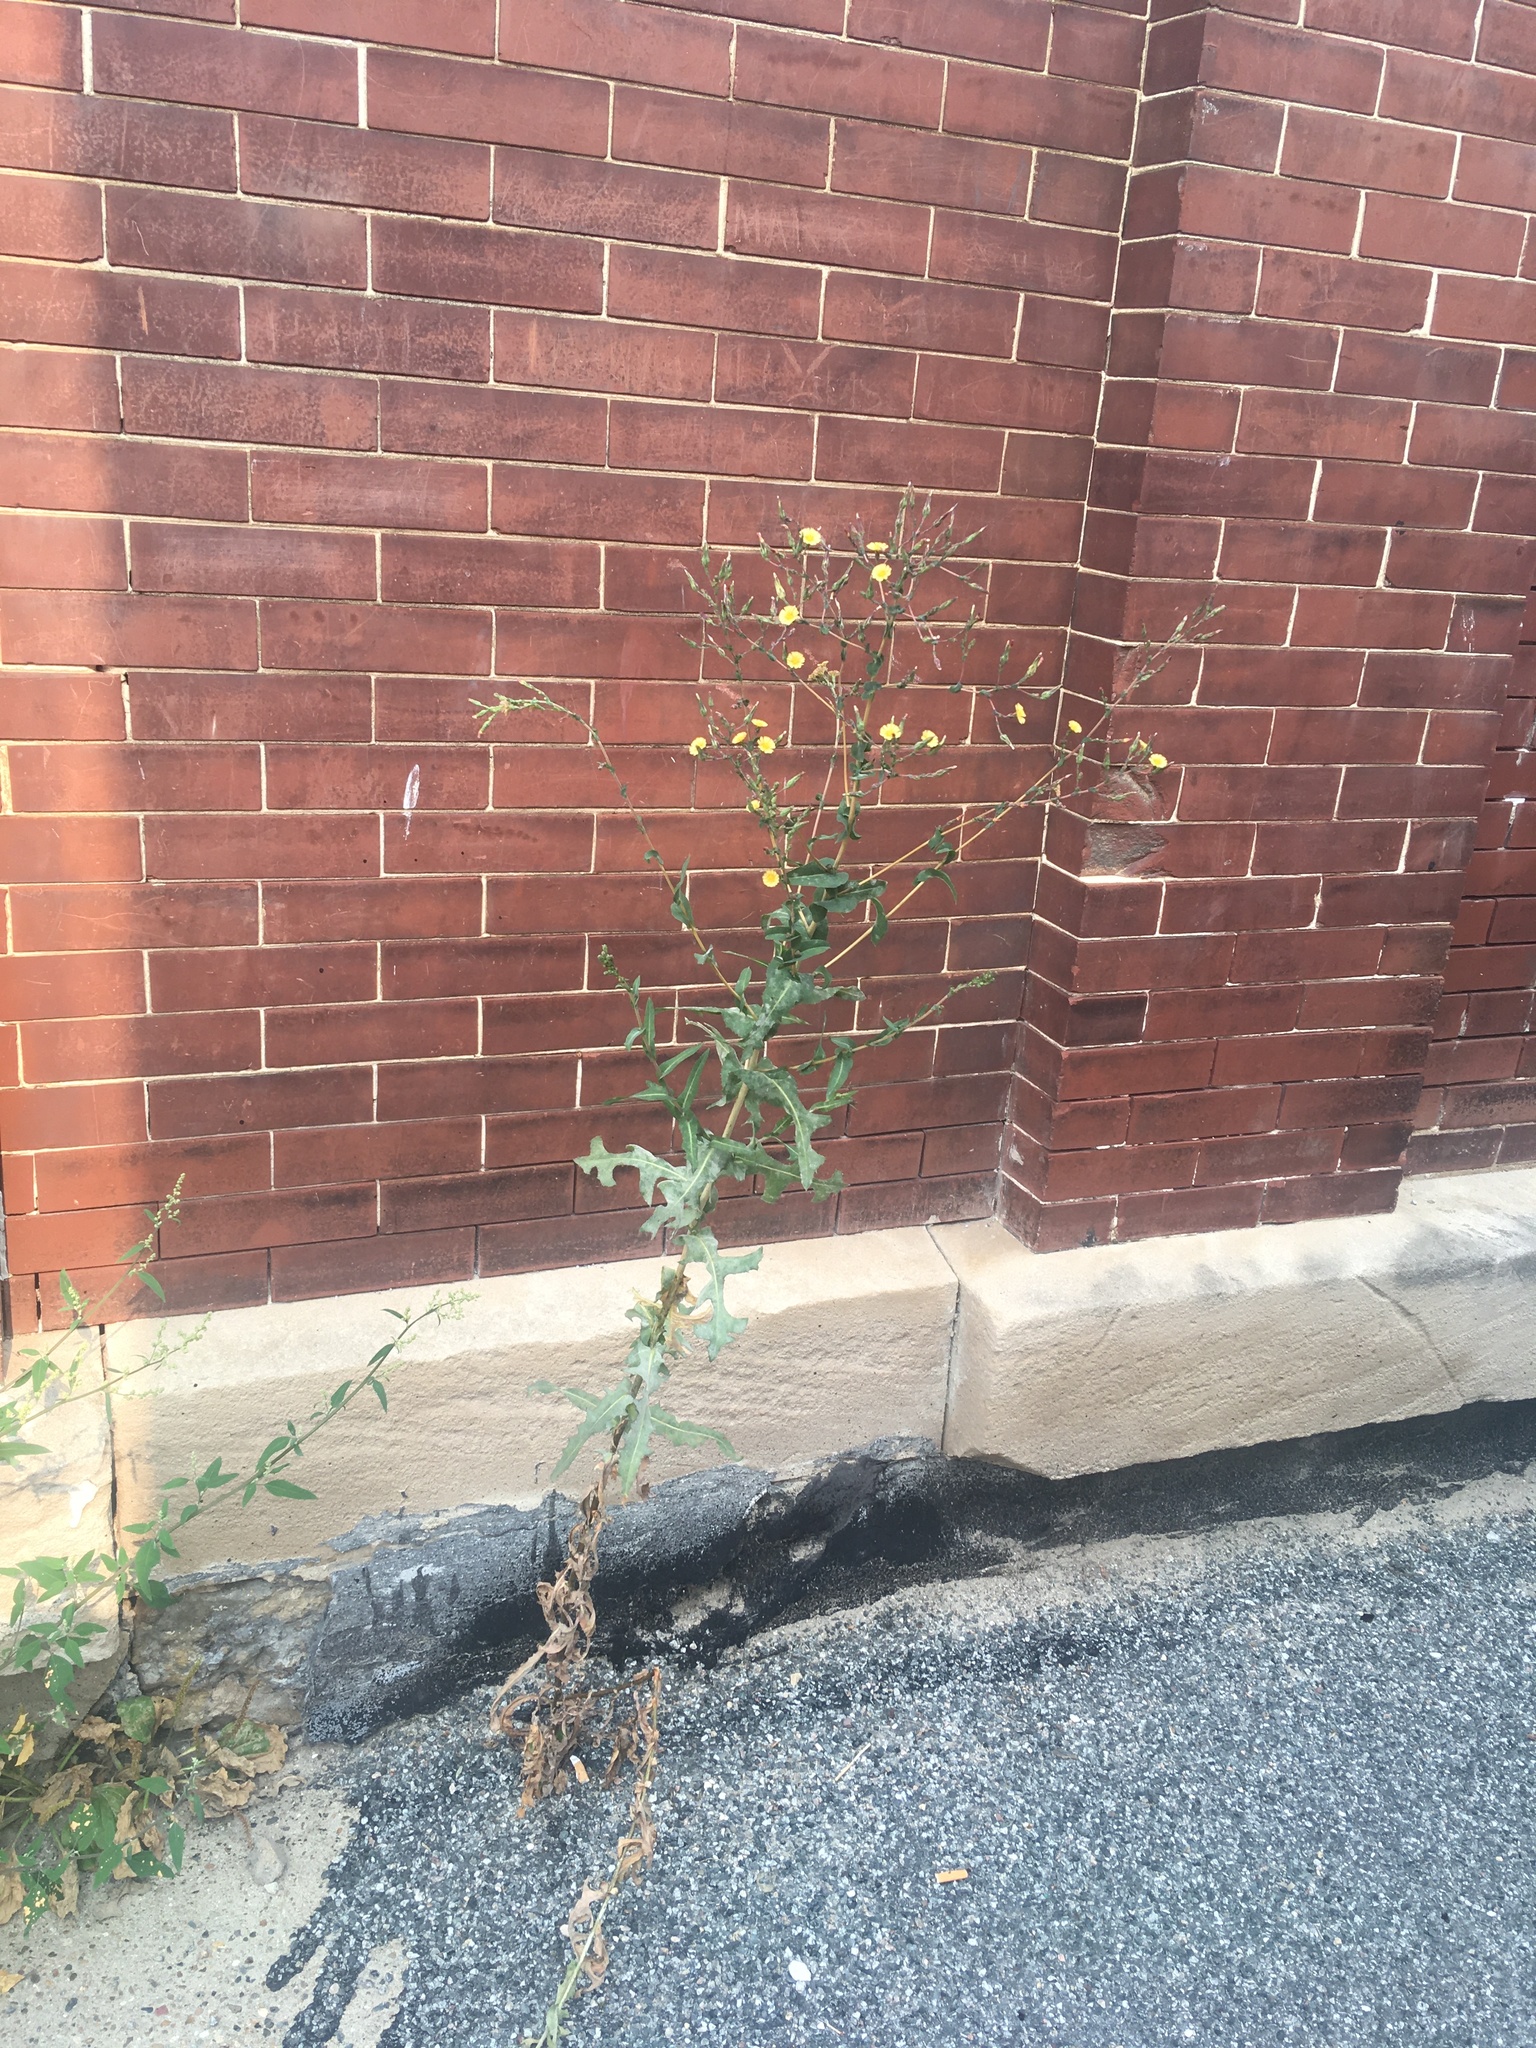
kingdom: Plantae
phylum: Tracheophyta
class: Magnoliopsida
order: Asterales
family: Asteraceae
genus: Lactuca
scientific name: Lactuca serriola
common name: Prickly lettuce
